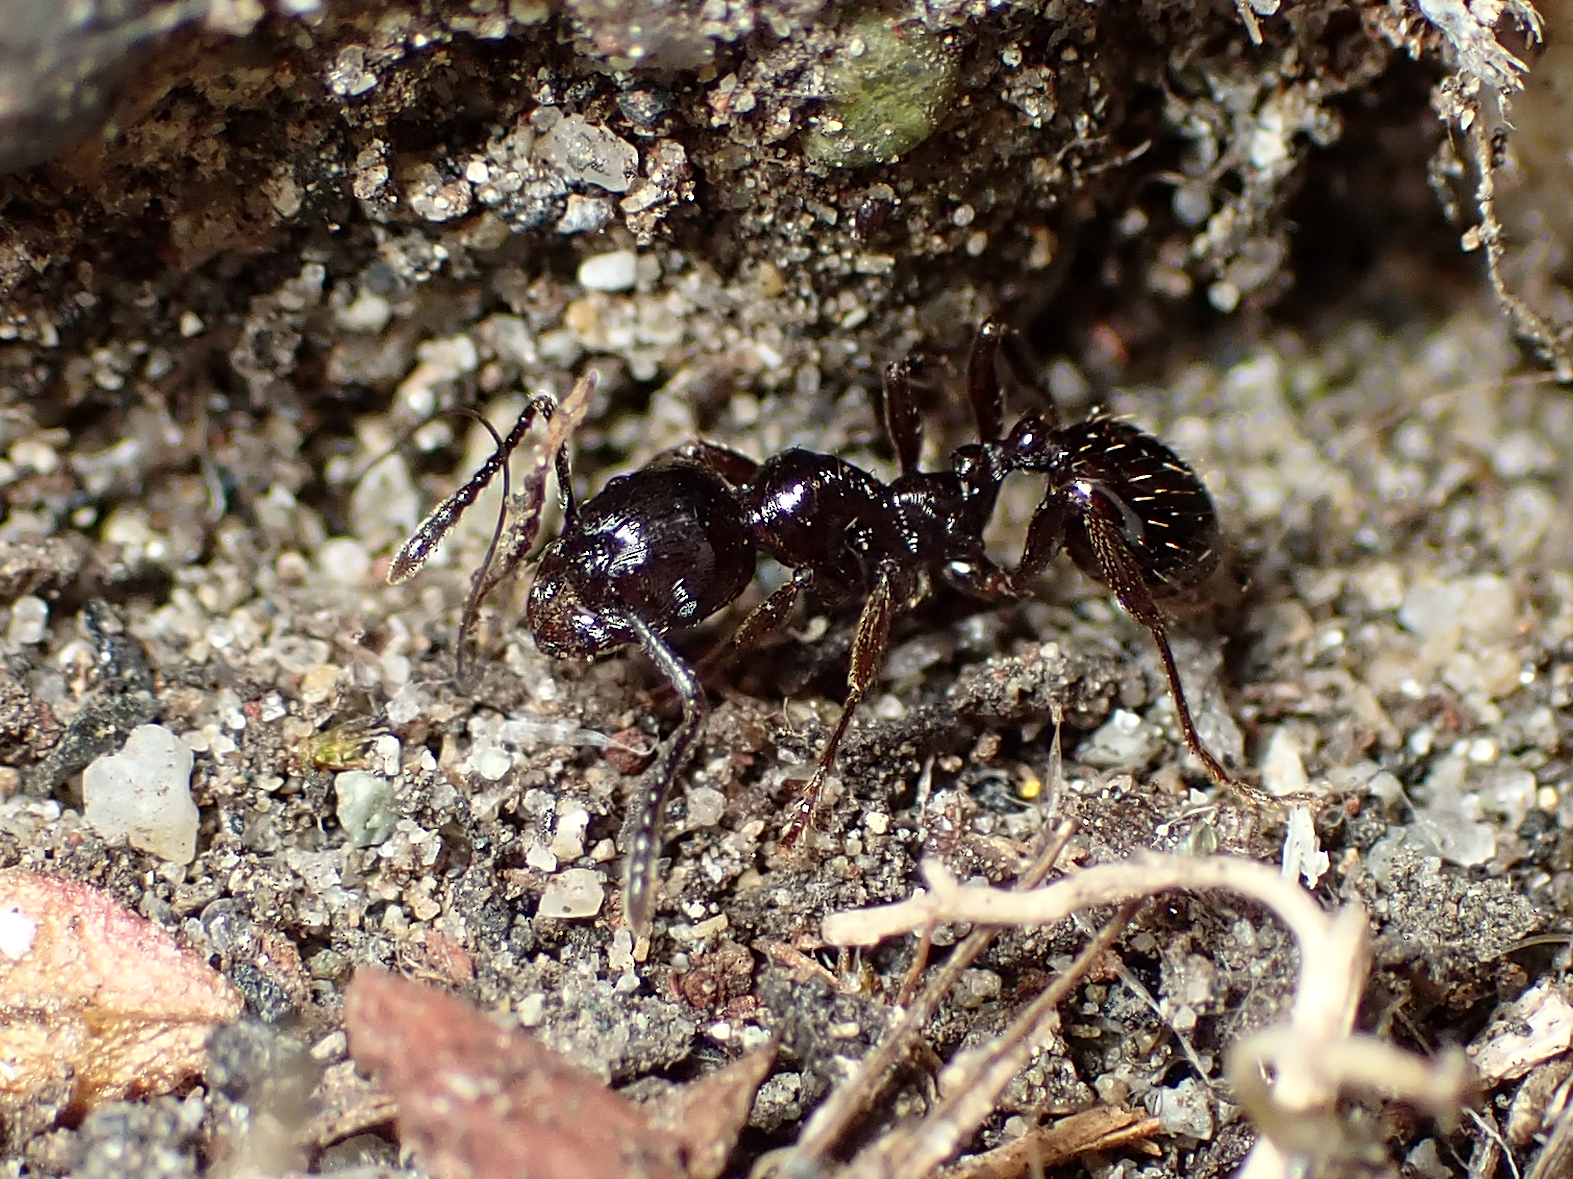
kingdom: Animalia
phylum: Arthropoda
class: Insecta
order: Hymenoptera
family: Formicidae
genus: Huberia
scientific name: Huberia brounii
